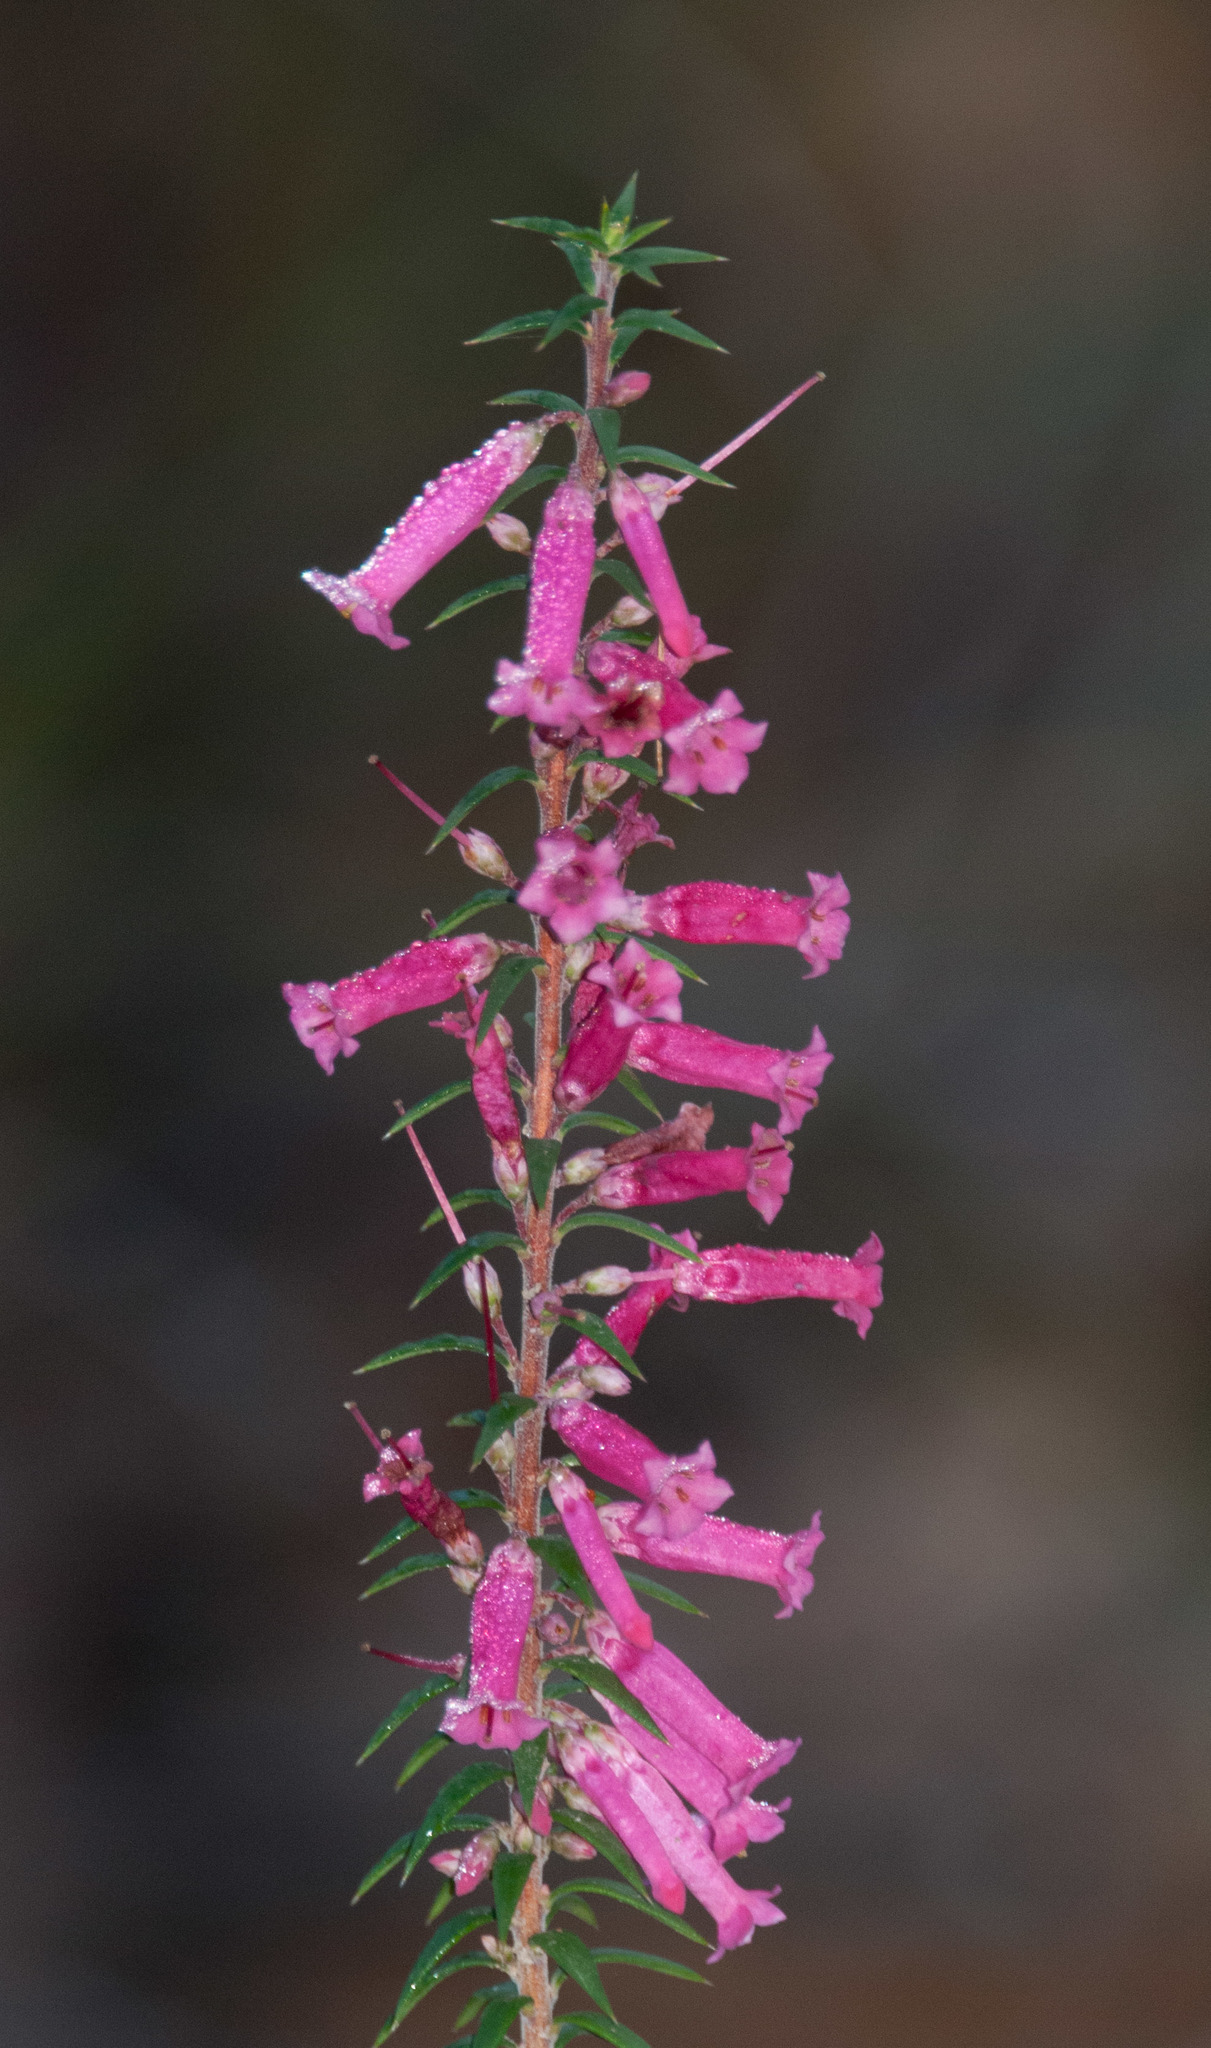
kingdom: Plantae
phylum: Tracheophyta
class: Magnoliopsida
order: Ericales
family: Ericaceae
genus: Epacris
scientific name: Epacris impressa
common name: Common-heath
